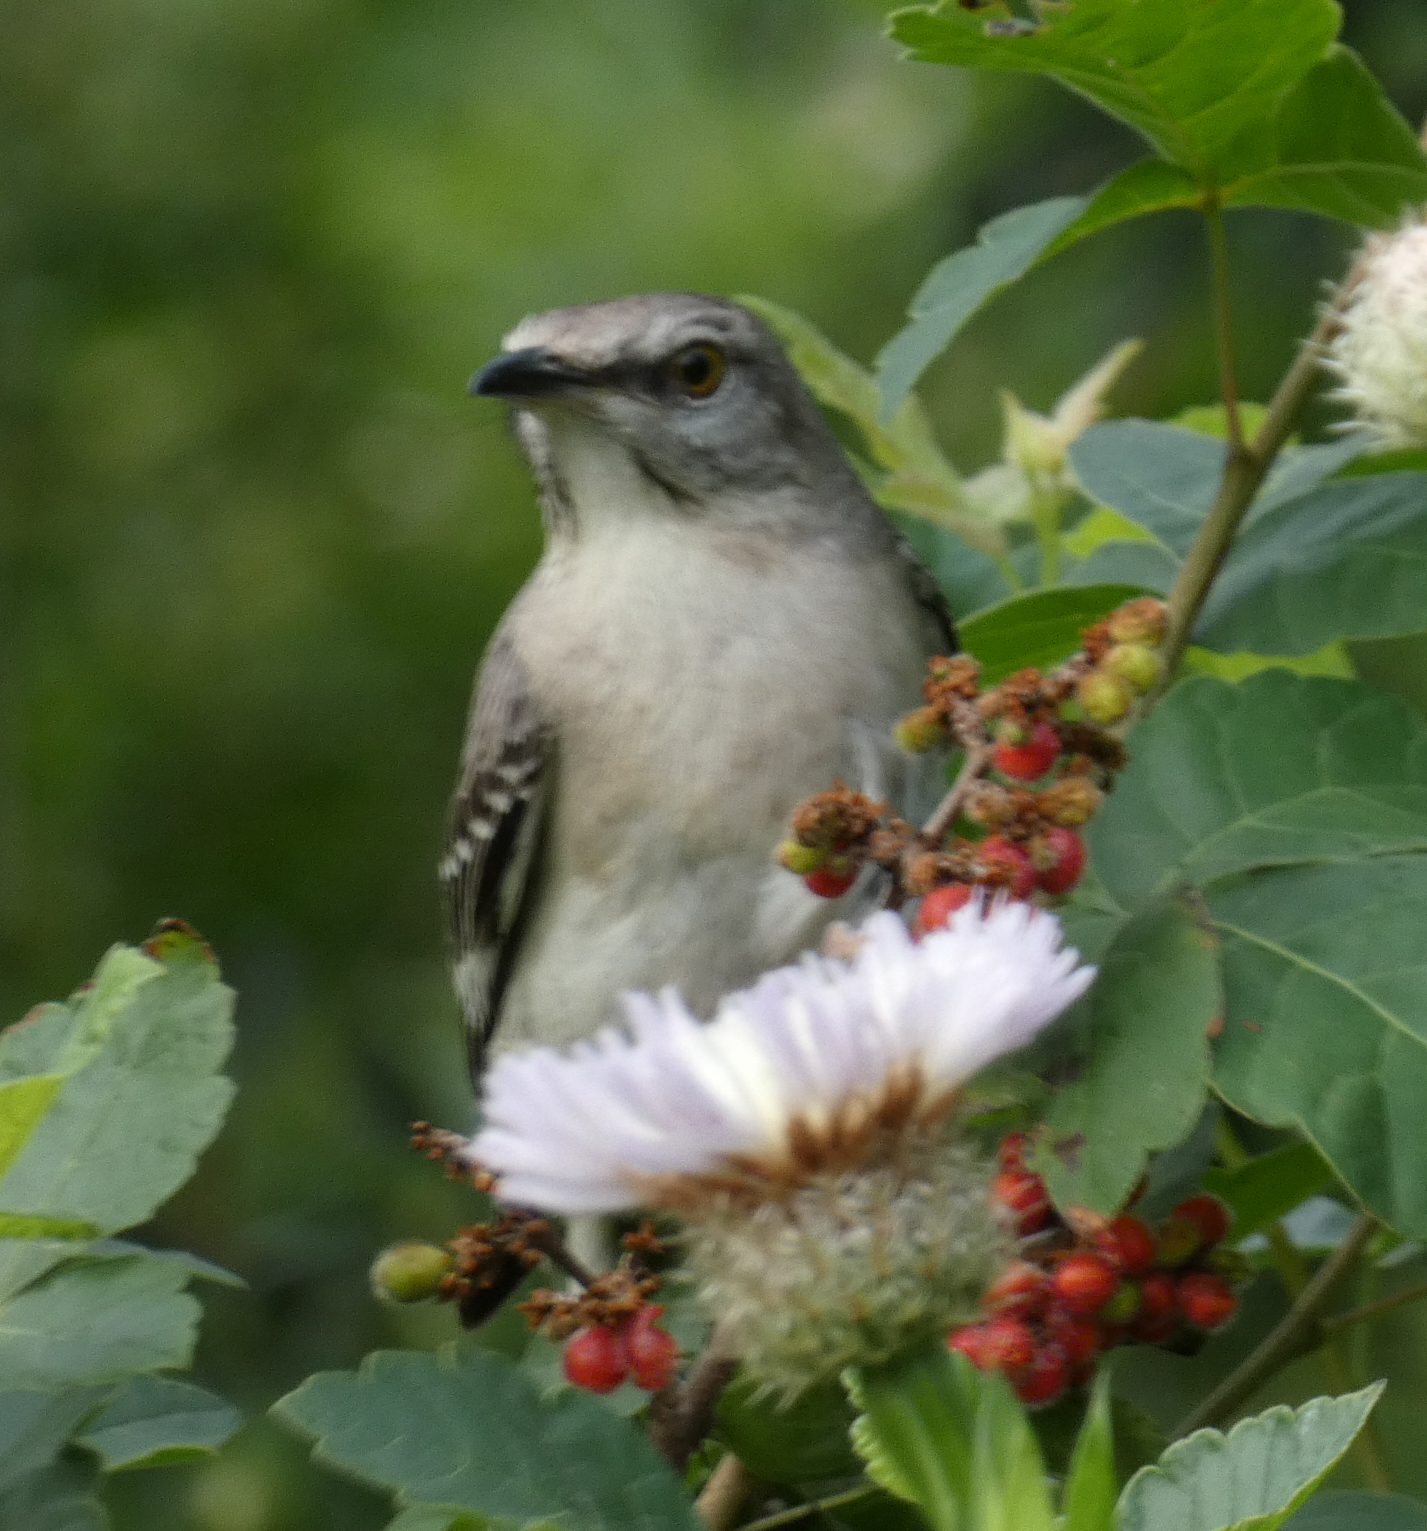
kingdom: Animalia
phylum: Chordata
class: Aves
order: Passeriformes
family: Mimidae
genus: Mimus
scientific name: Mimus polyglottos
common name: Northern mockingbird
